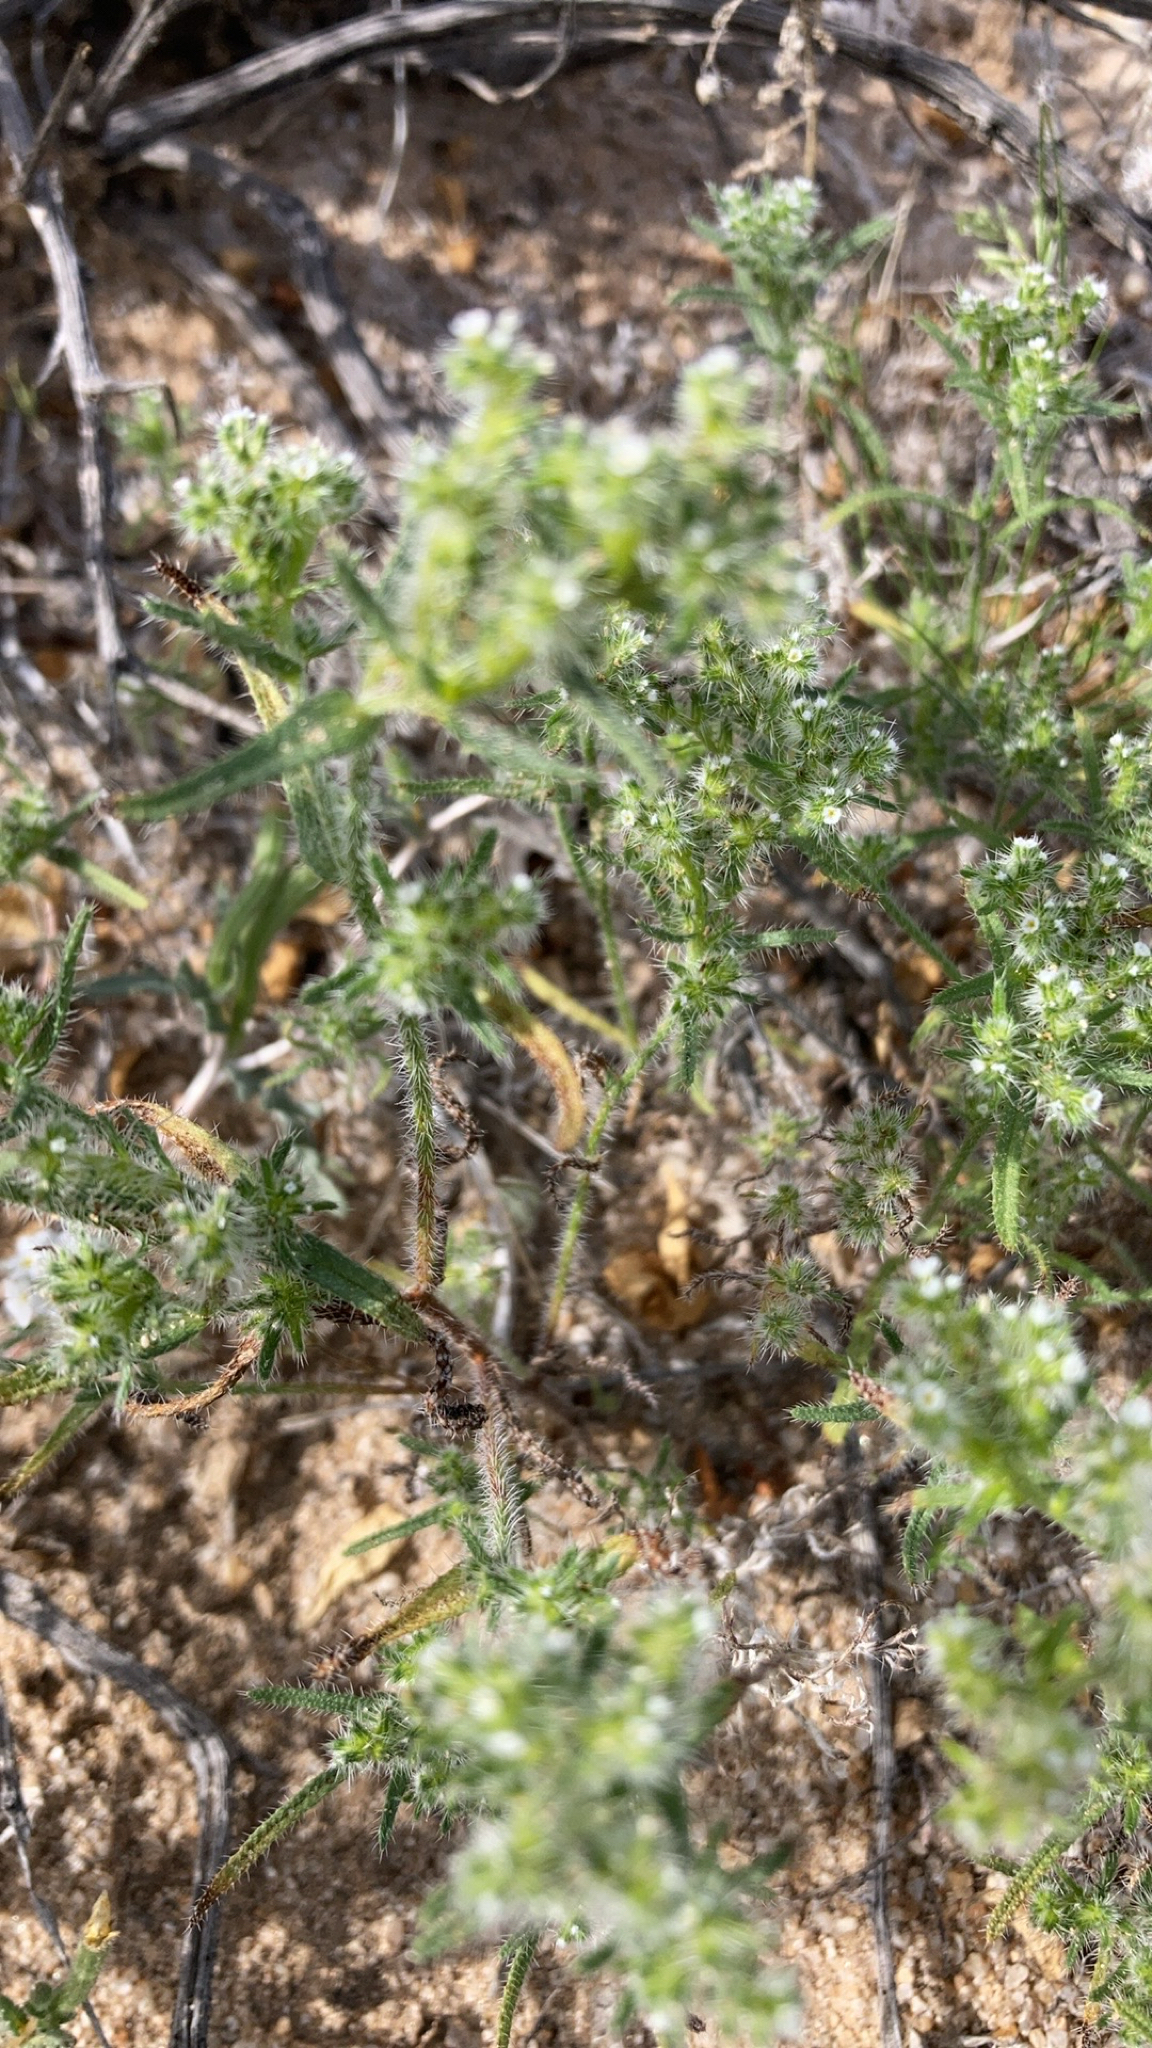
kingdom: Plantae
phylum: Tracheophyta
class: Magnoliopsida
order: Boraginales
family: Boraginaceae
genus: Cryptantha
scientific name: Cryptantha maritima
